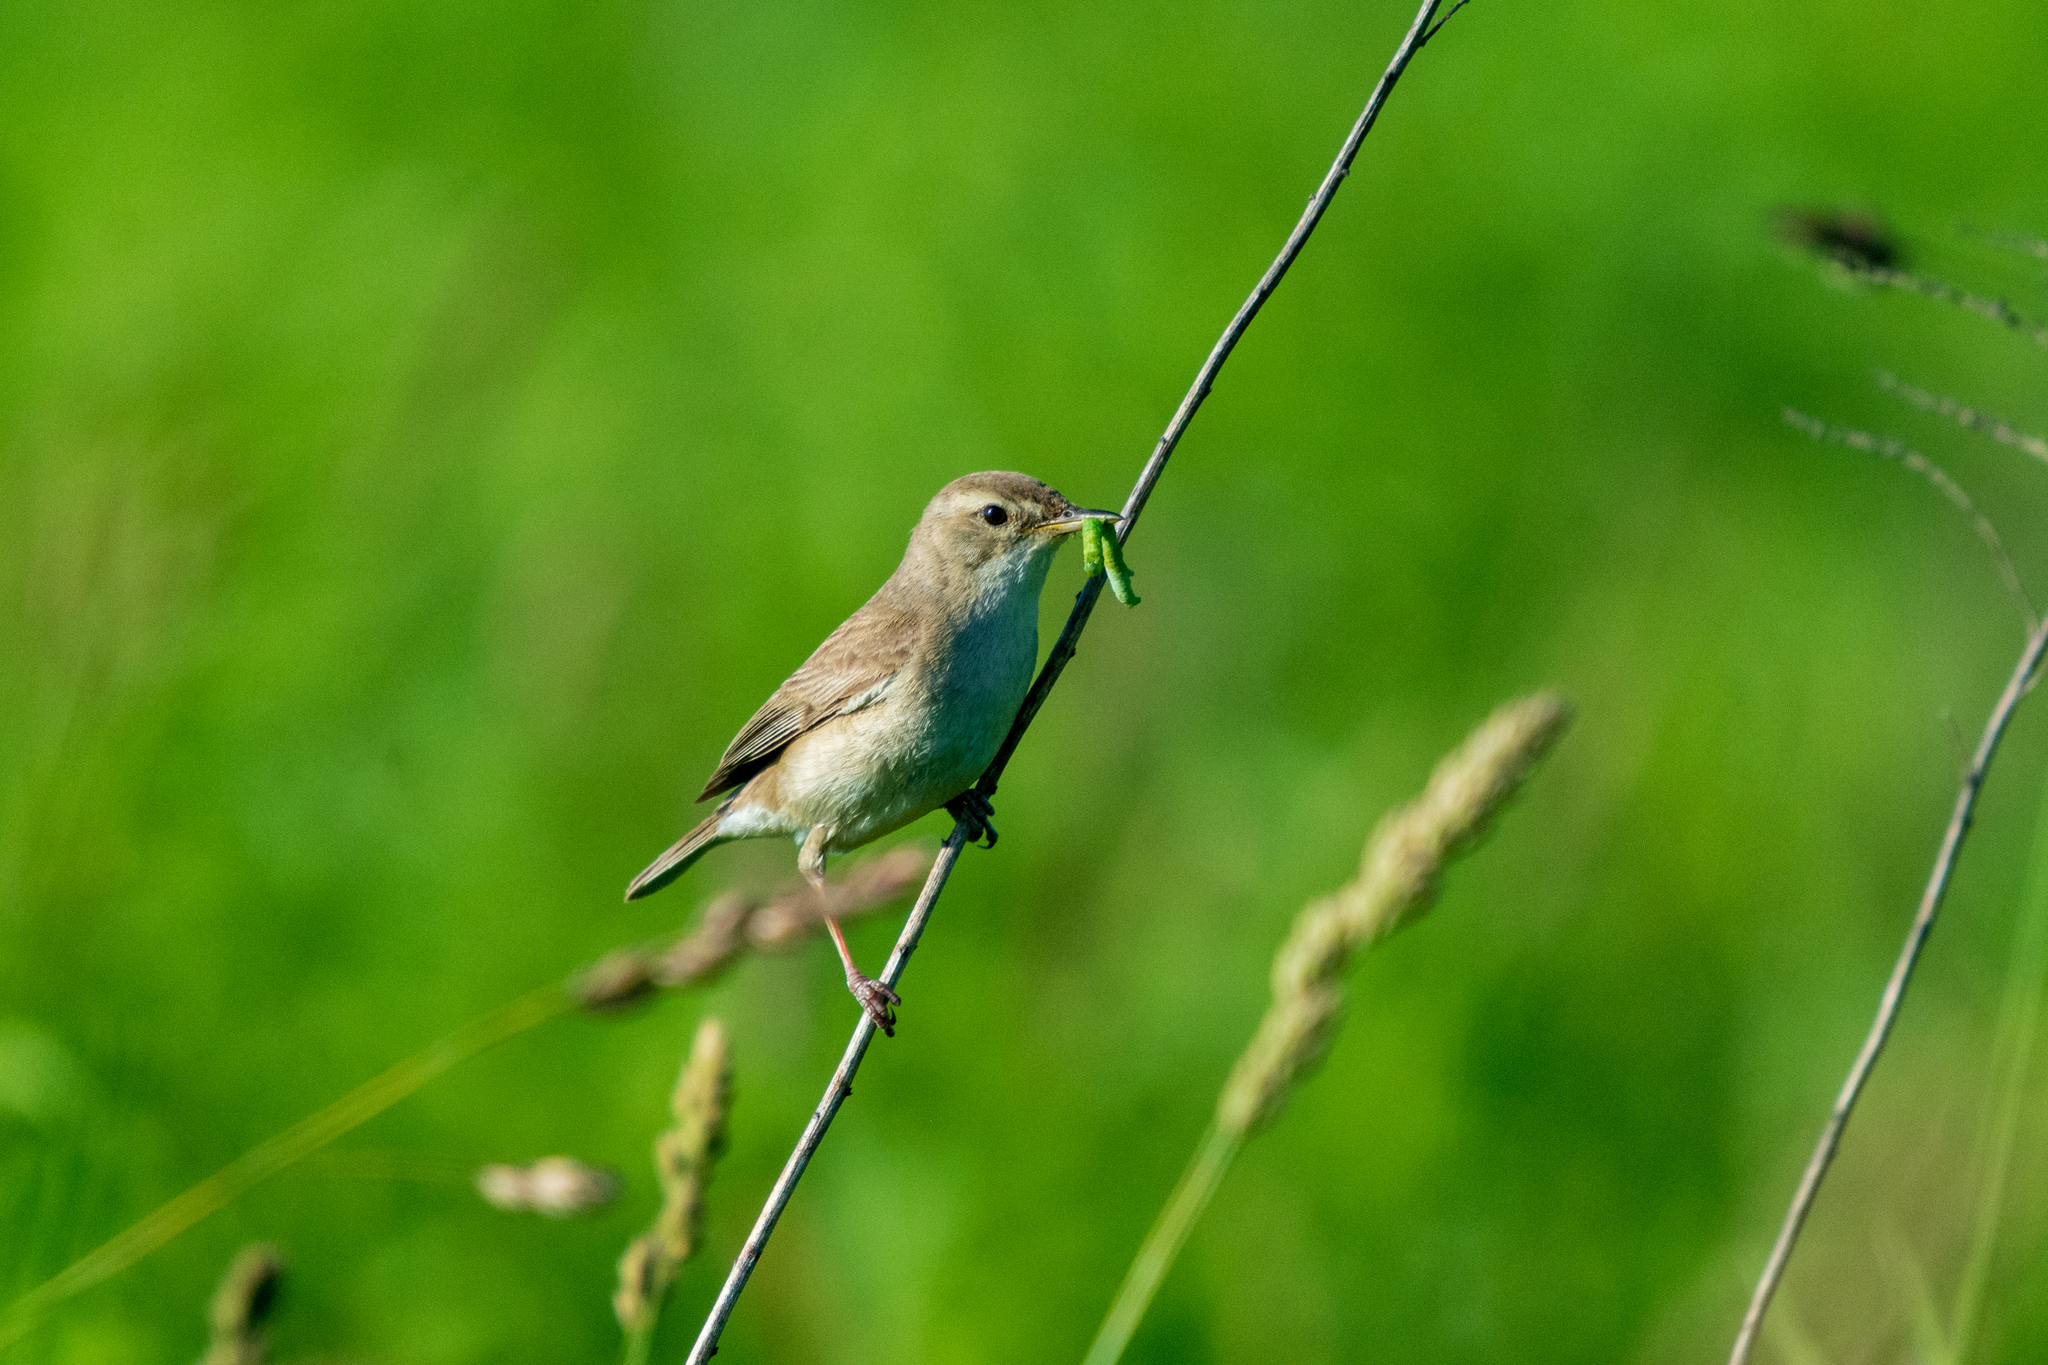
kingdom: Animalia
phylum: Chordata
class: Aves
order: Passeriformes
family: Acrocephalidae
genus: Iduna
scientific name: Iduna caligata
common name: Booted warbler
